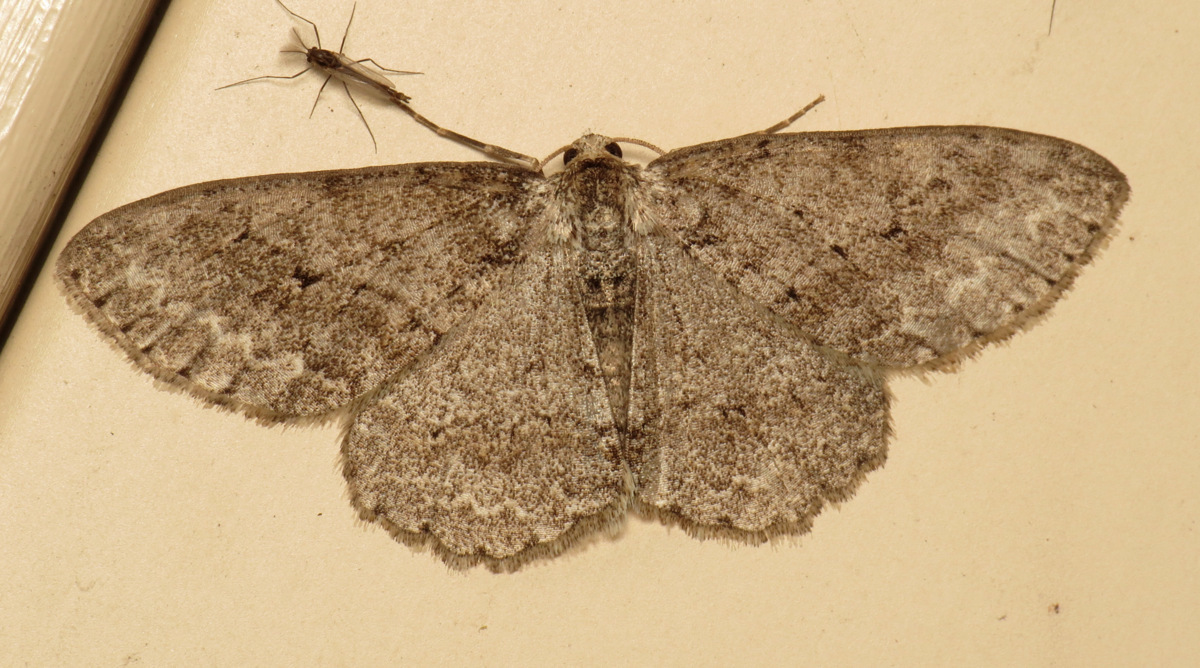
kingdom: Animalia
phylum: Arthropoda
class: Insecta
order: Lepidoptera
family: Geometridae
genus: Ectropis
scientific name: Ectropis crepuscularia
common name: Engrailed
